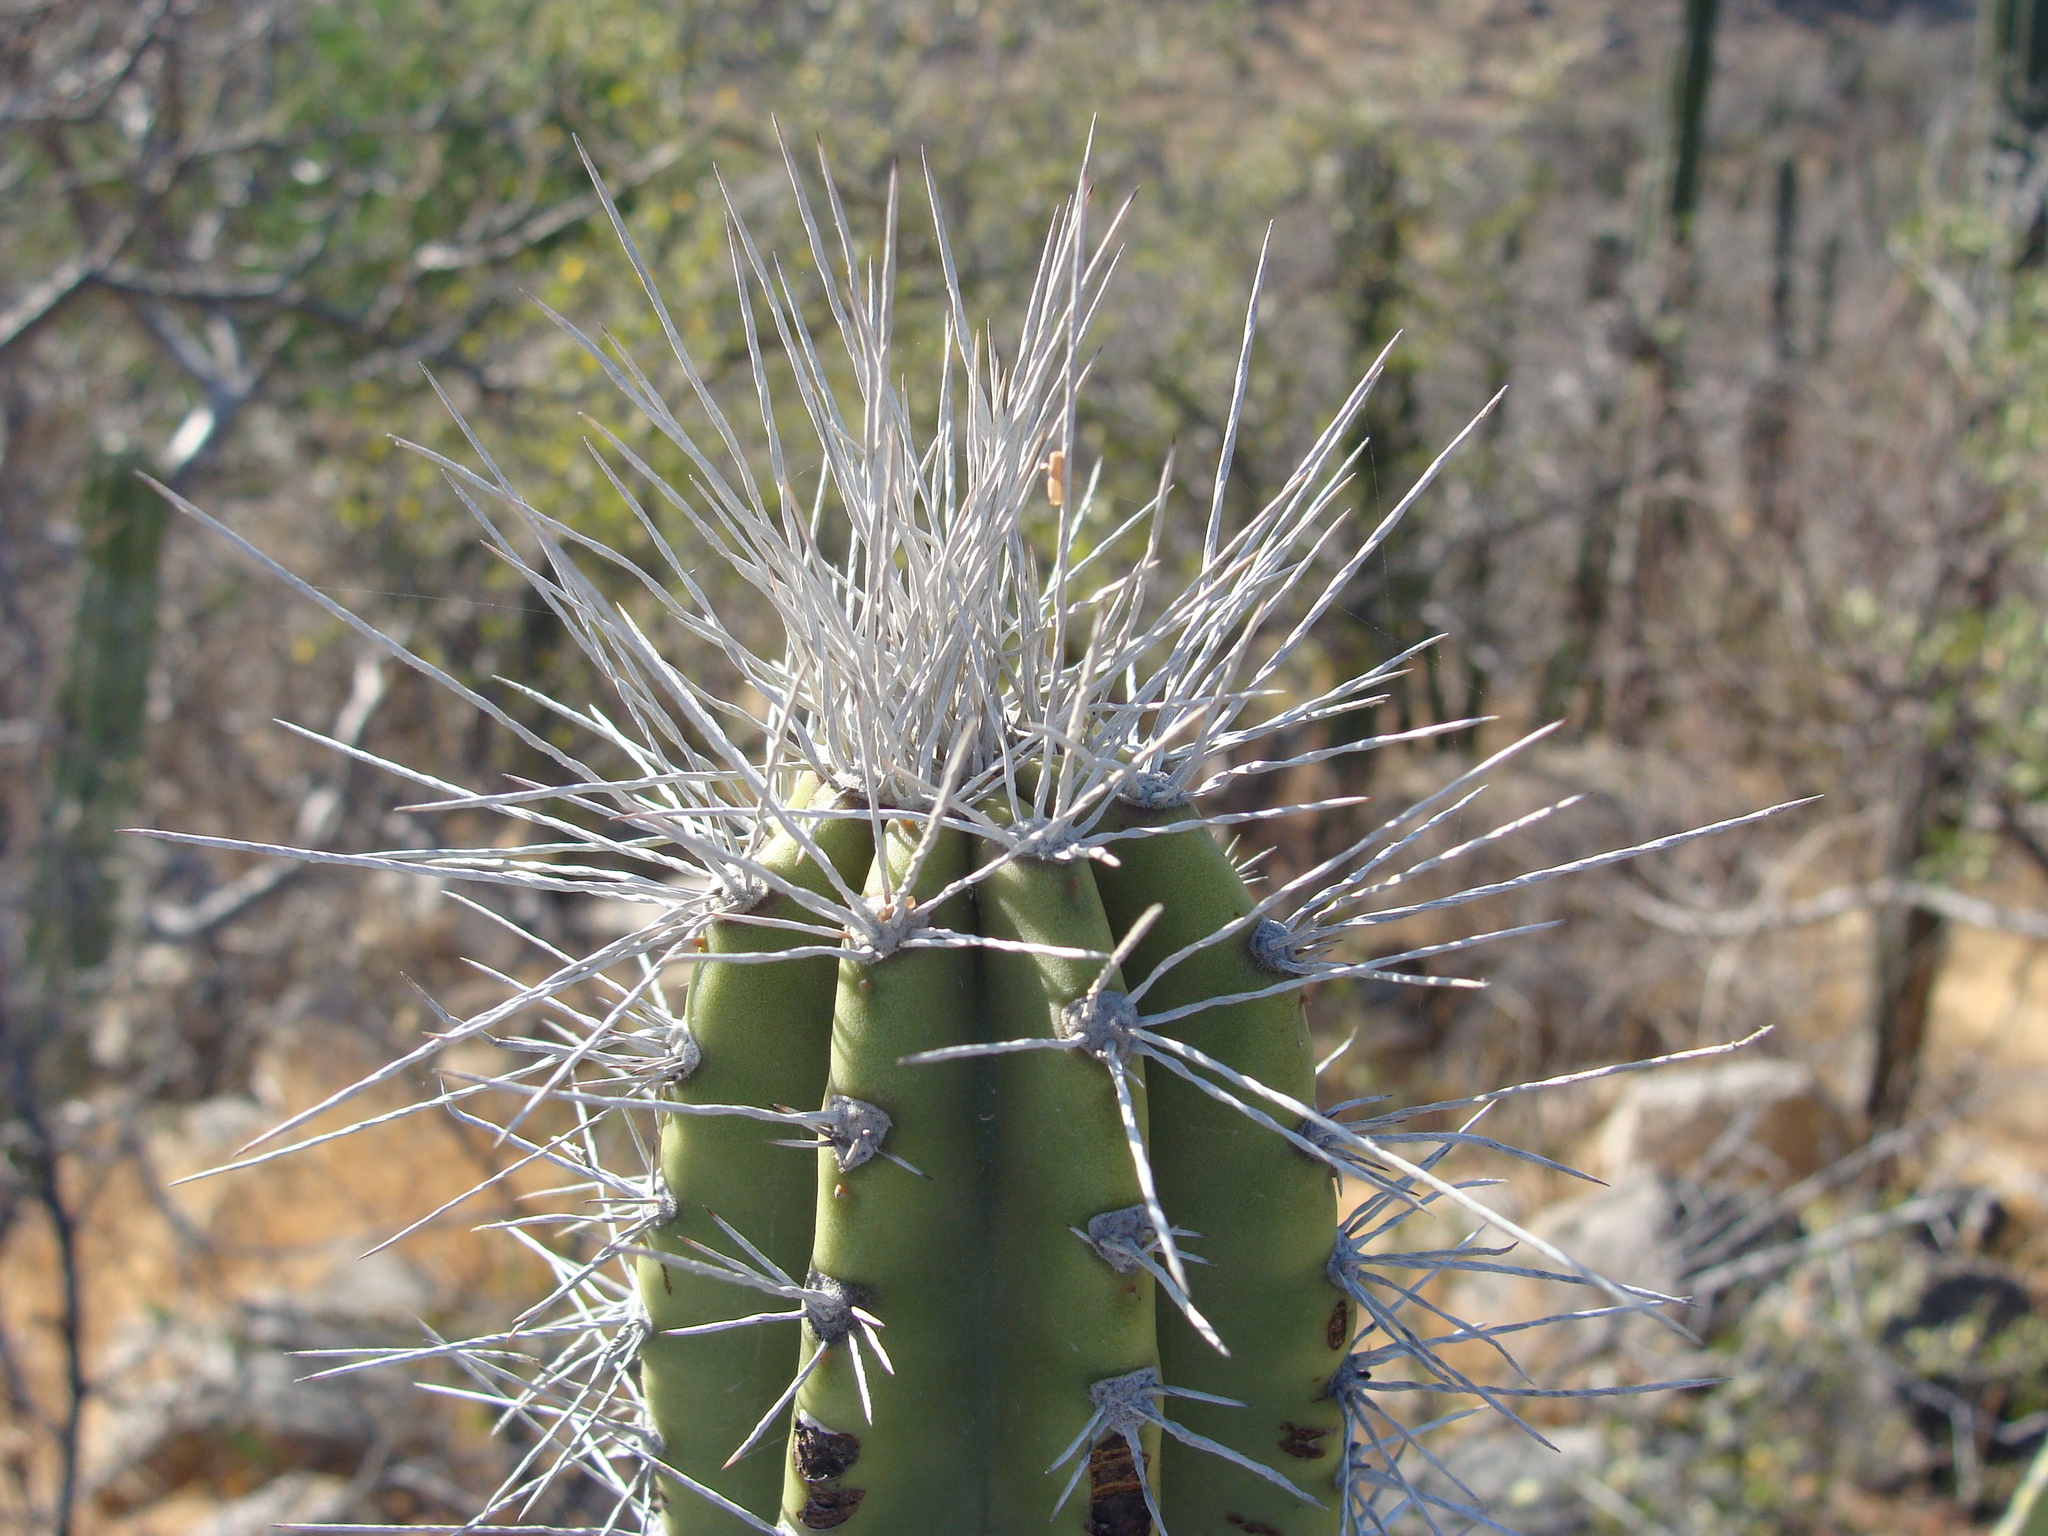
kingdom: Plantae
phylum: Tracheophyta
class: Magnoliopsida
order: Caryophyllales
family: Cactaceae
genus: Pachycereus
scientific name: Pachycereus schottii
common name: Senita cactus
